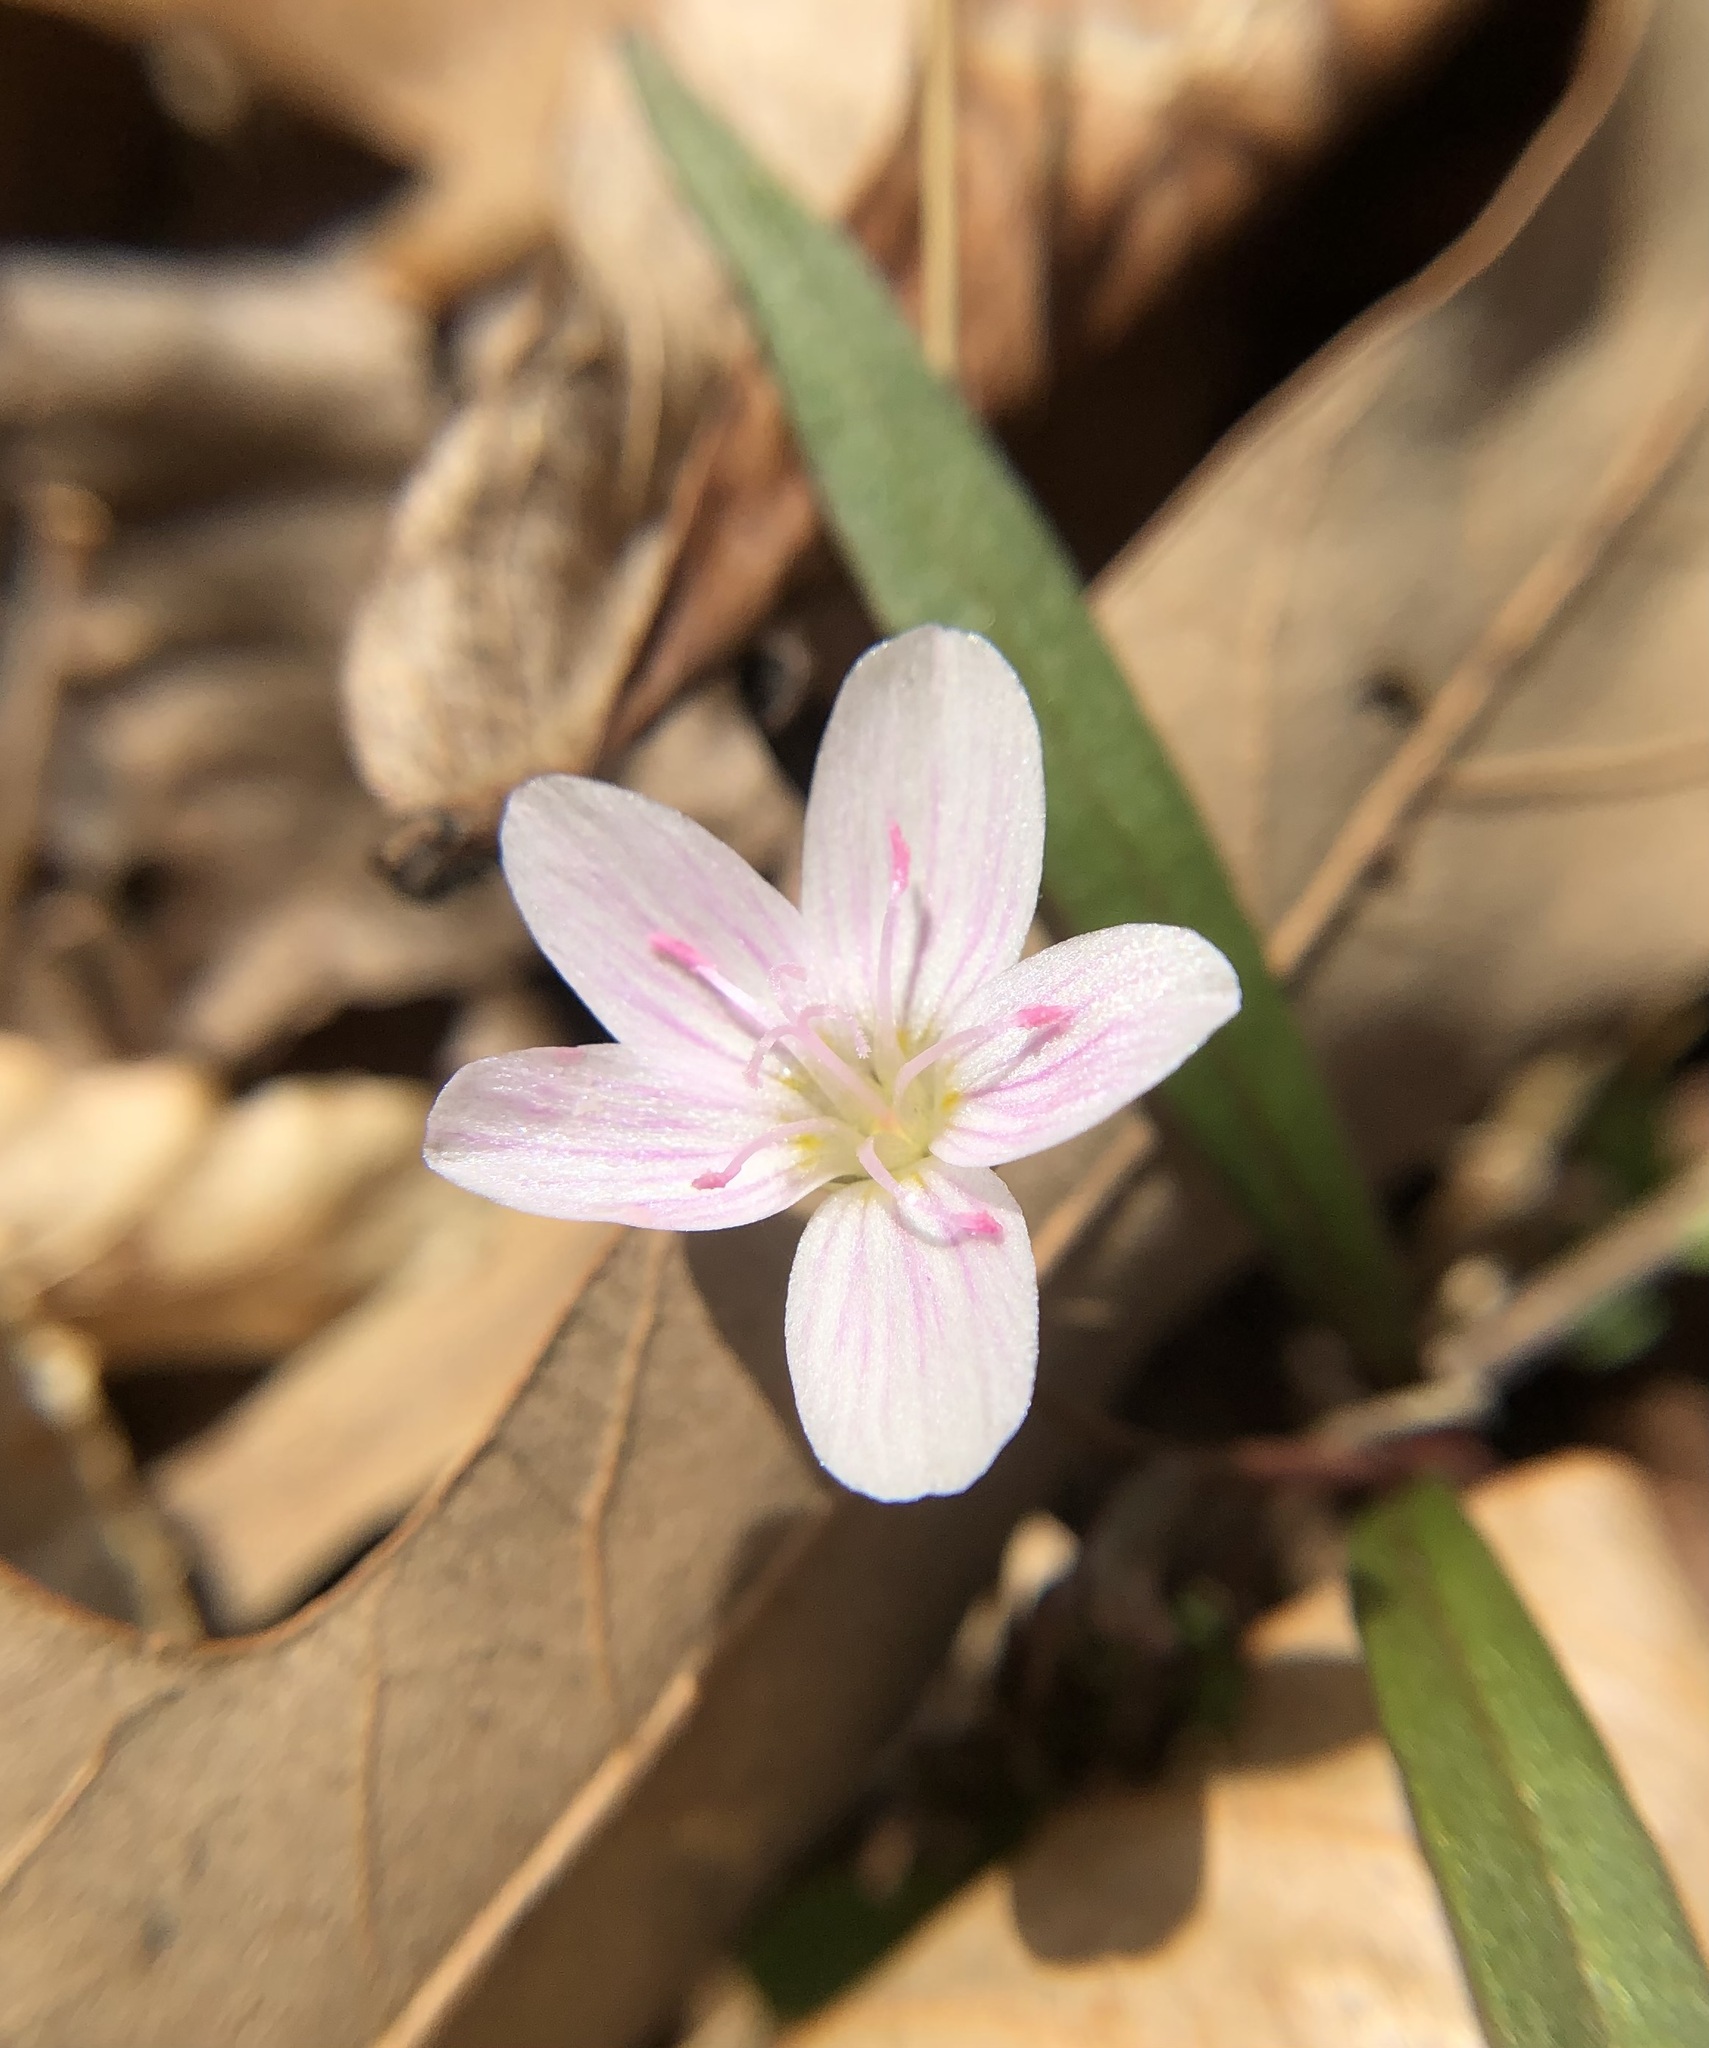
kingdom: Plantae
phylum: Tracheophyta
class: Magnoliopsida
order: Caryophyllales
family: Montiaceae
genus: Claytonia
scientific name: Claytonia virginica
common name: Virginia springbeauty
